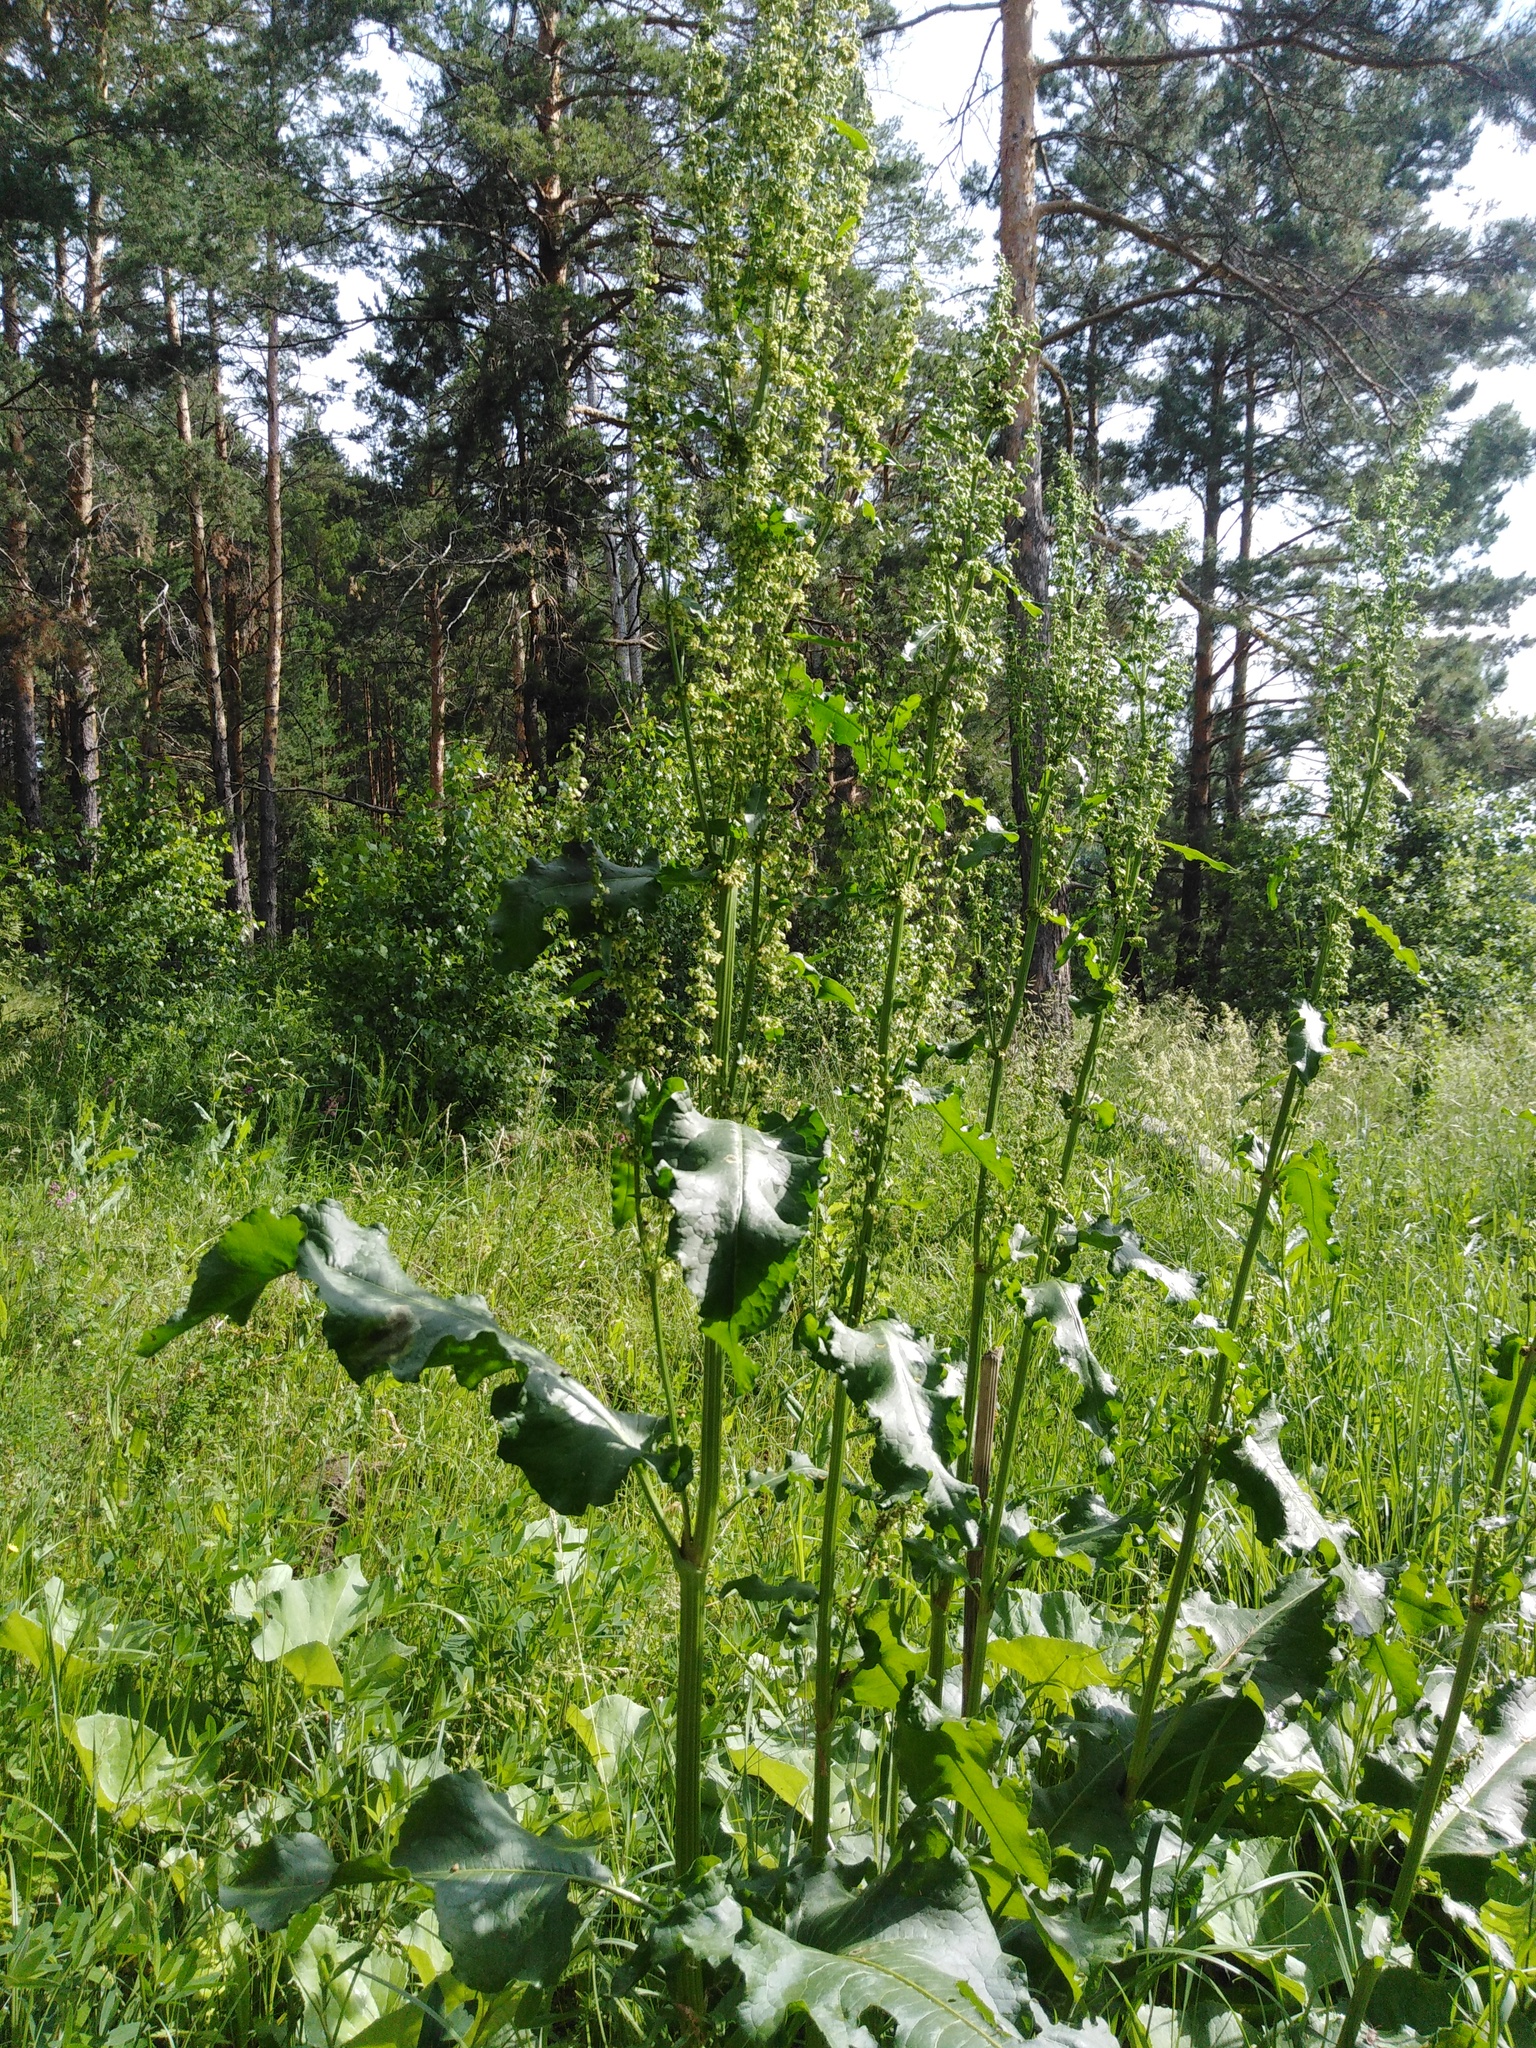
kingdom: Plantae
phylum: Tracheophyta
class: Magnoliopsida
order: Caryophyllales
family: Polygonaceae
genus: Rumex
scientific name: Rumex confertus
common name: Russian dock
